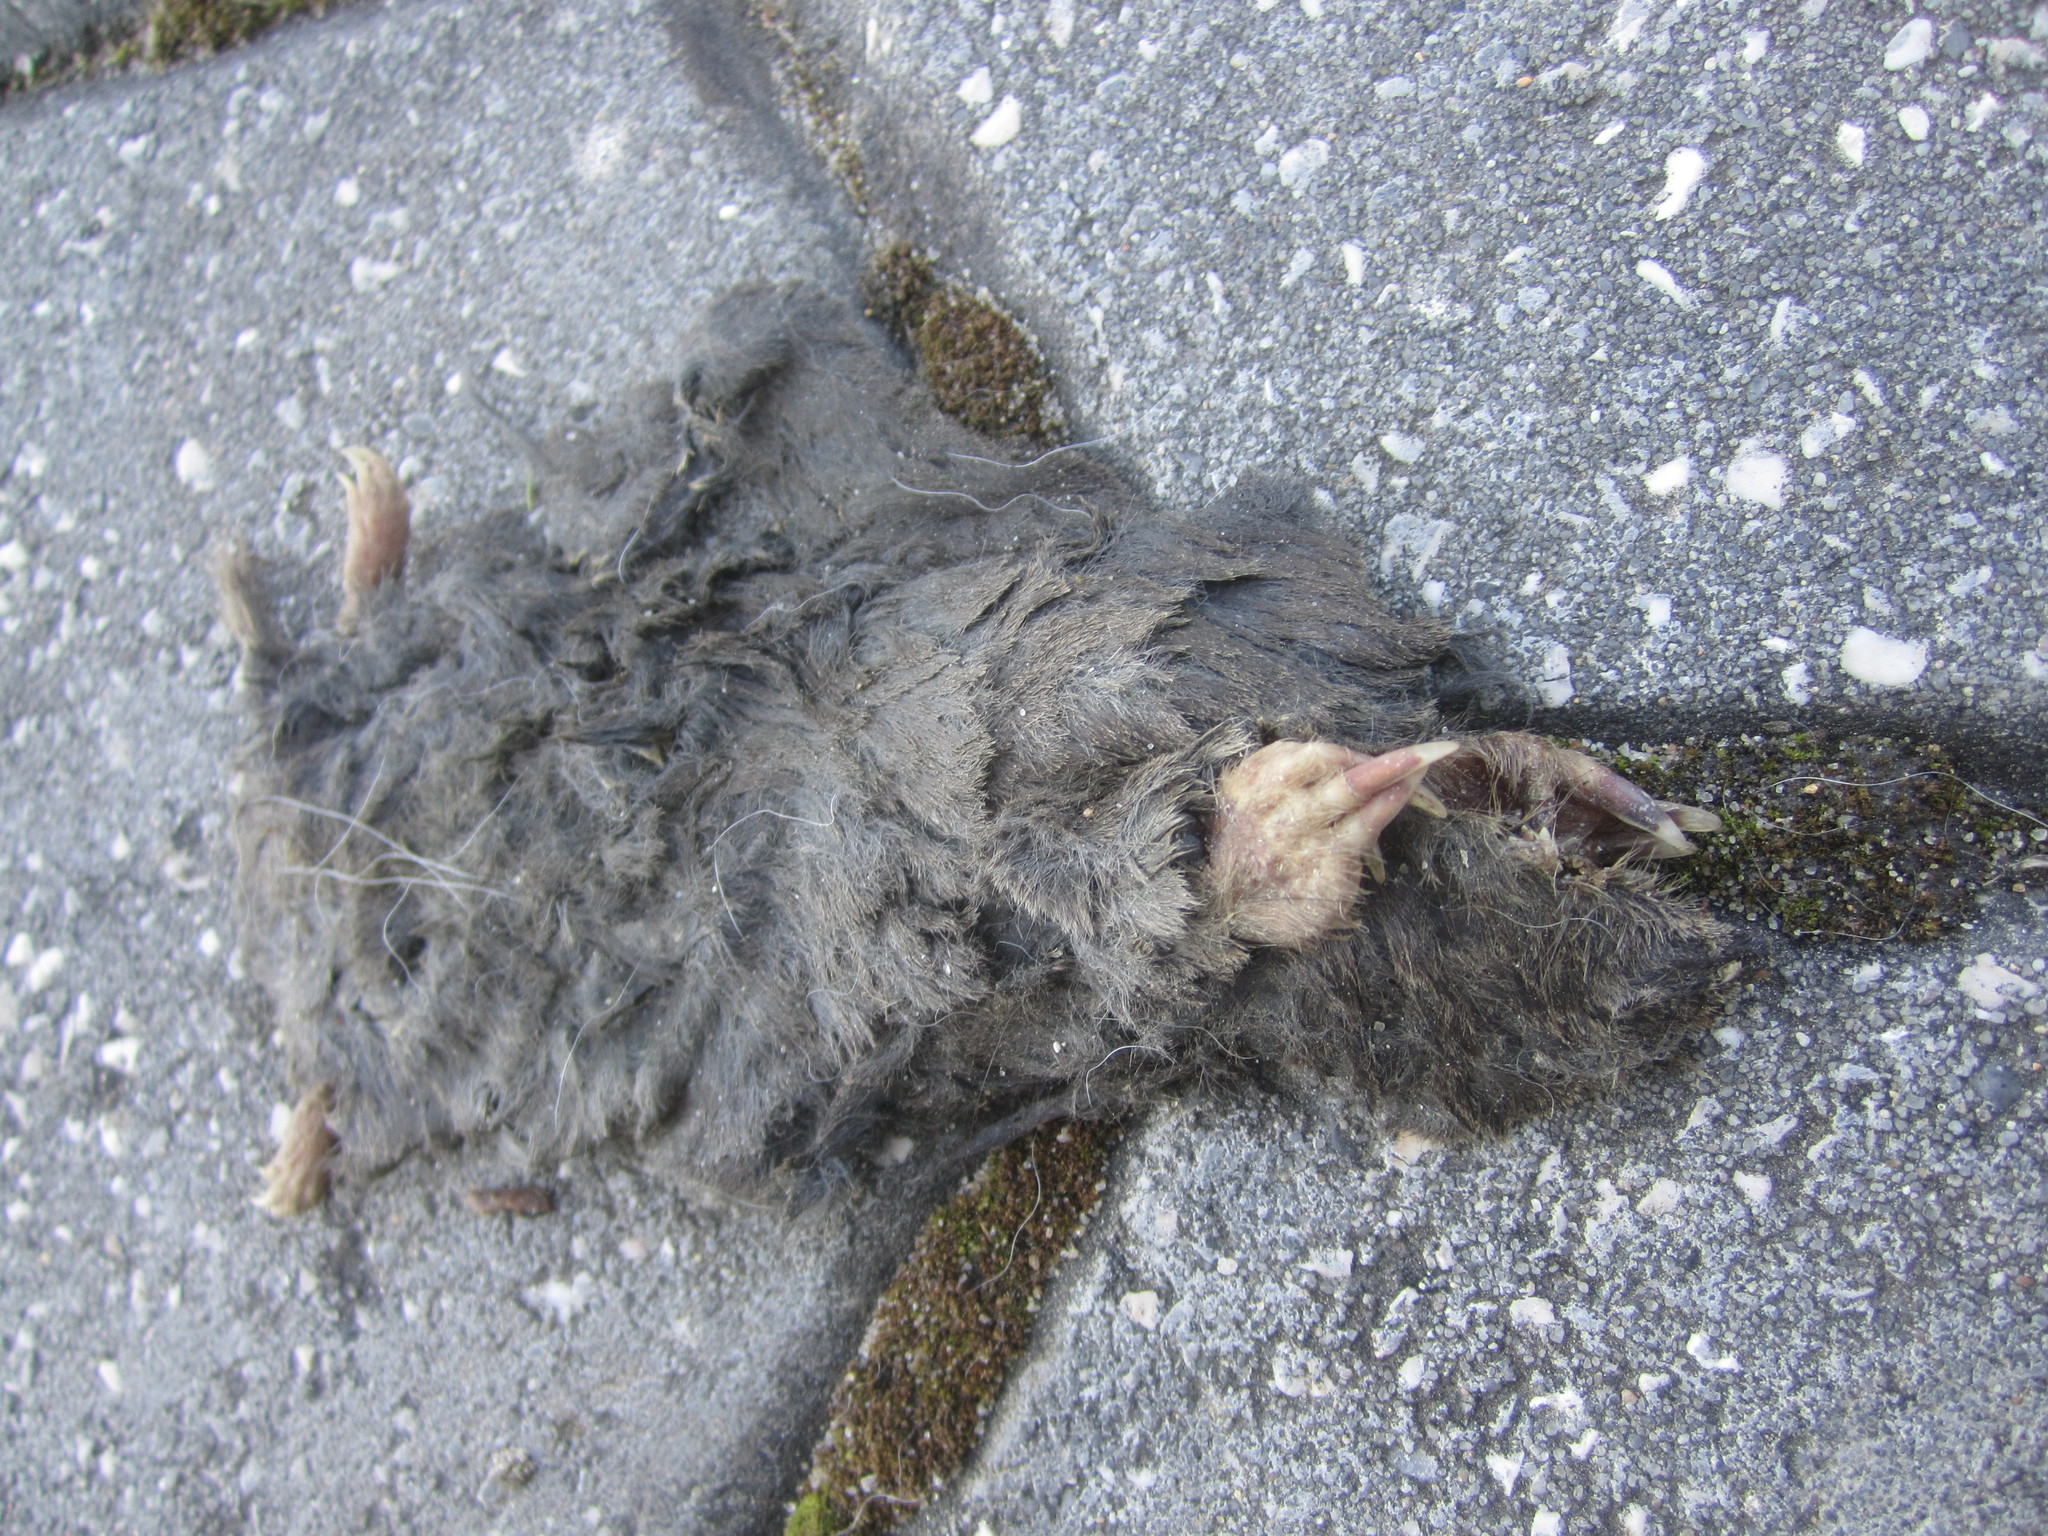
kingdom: Animalia
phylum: Chordata
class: Mammalia
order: Soricomorpha
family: Talpidae
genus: Talpa
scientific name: Talpa occidentalis
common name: Iberian mole
